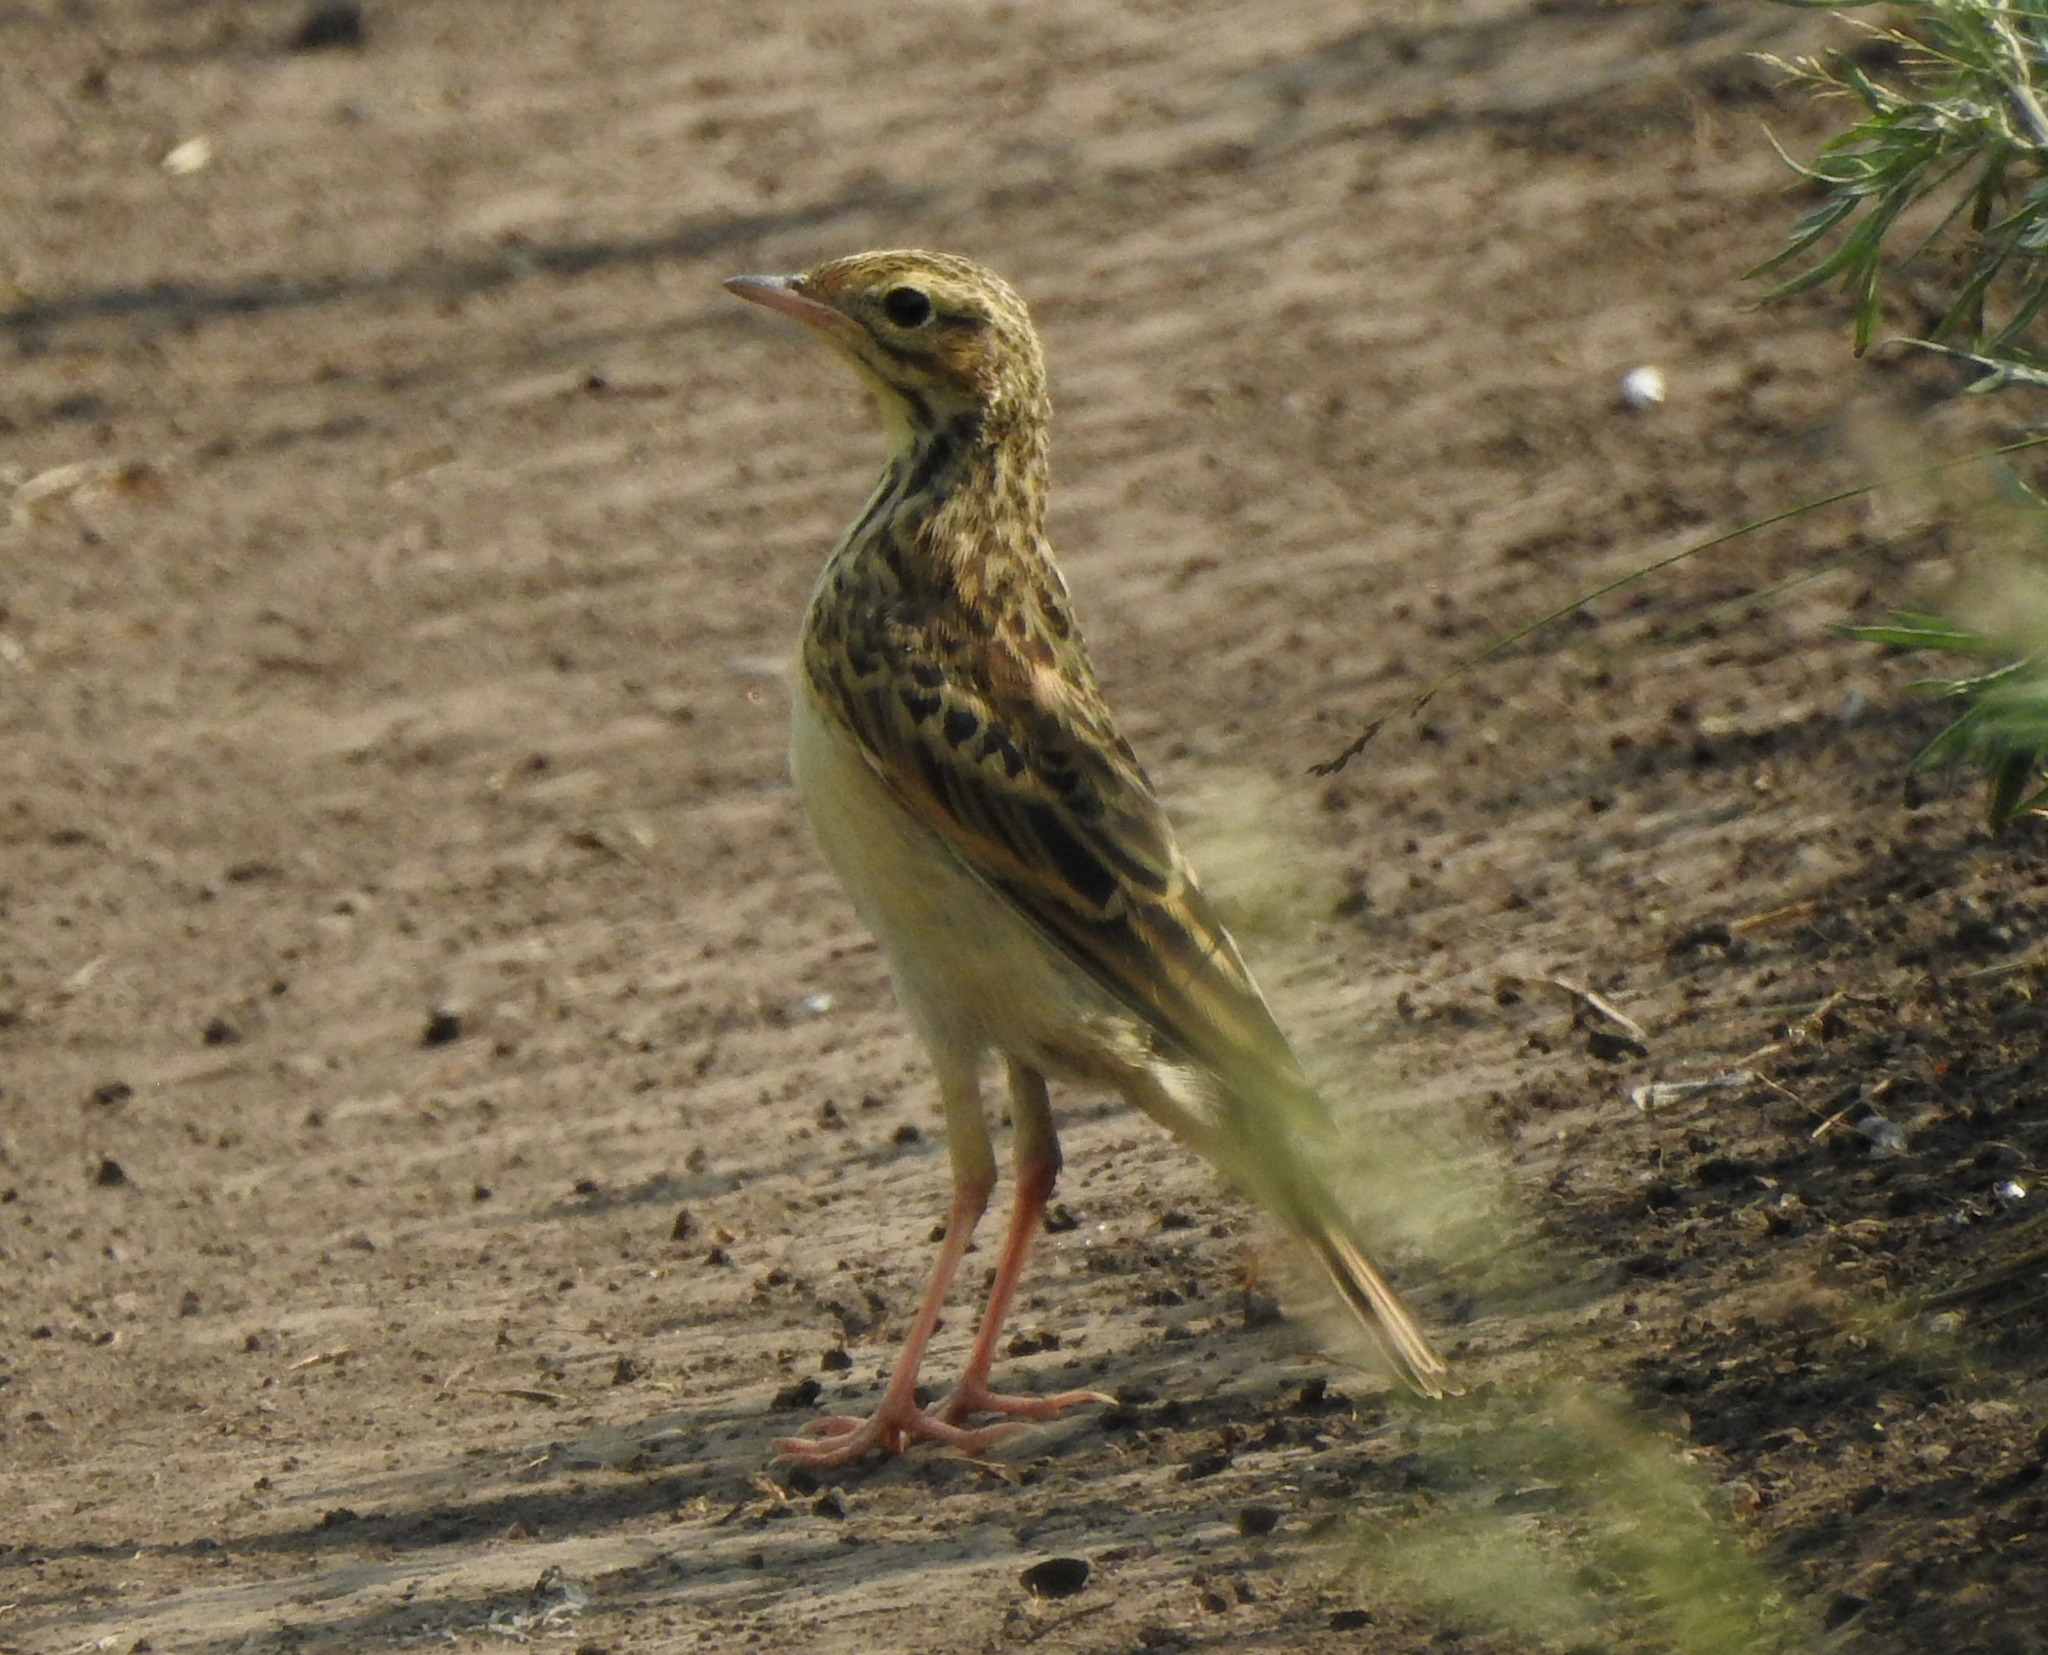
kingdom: Animalia
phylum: Chordata
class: Aves
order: Passeriformes
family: Motacillidae
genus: Anthus
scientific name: Anthus richardi
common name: Richard's pipit
